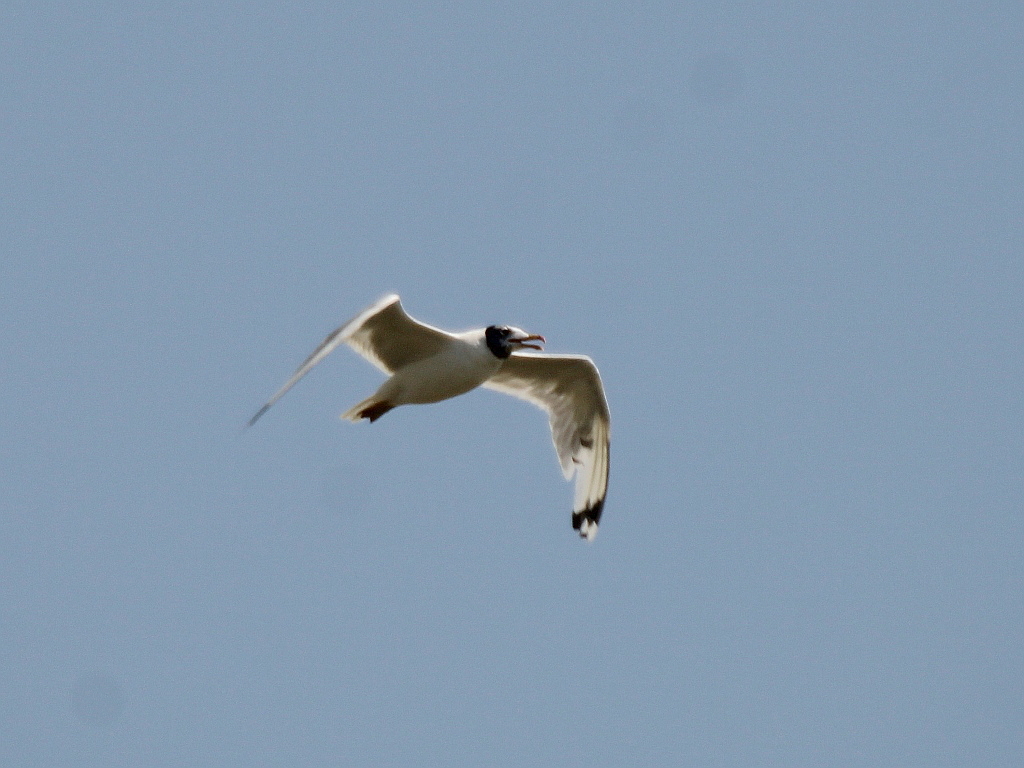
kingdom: Animalia
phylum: Chordata
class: Aves
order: Charadriiformes
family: Laridae
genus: Ichthyaetus
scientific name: Ichthyaetus ichthyaetus
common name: Pallas's gull
